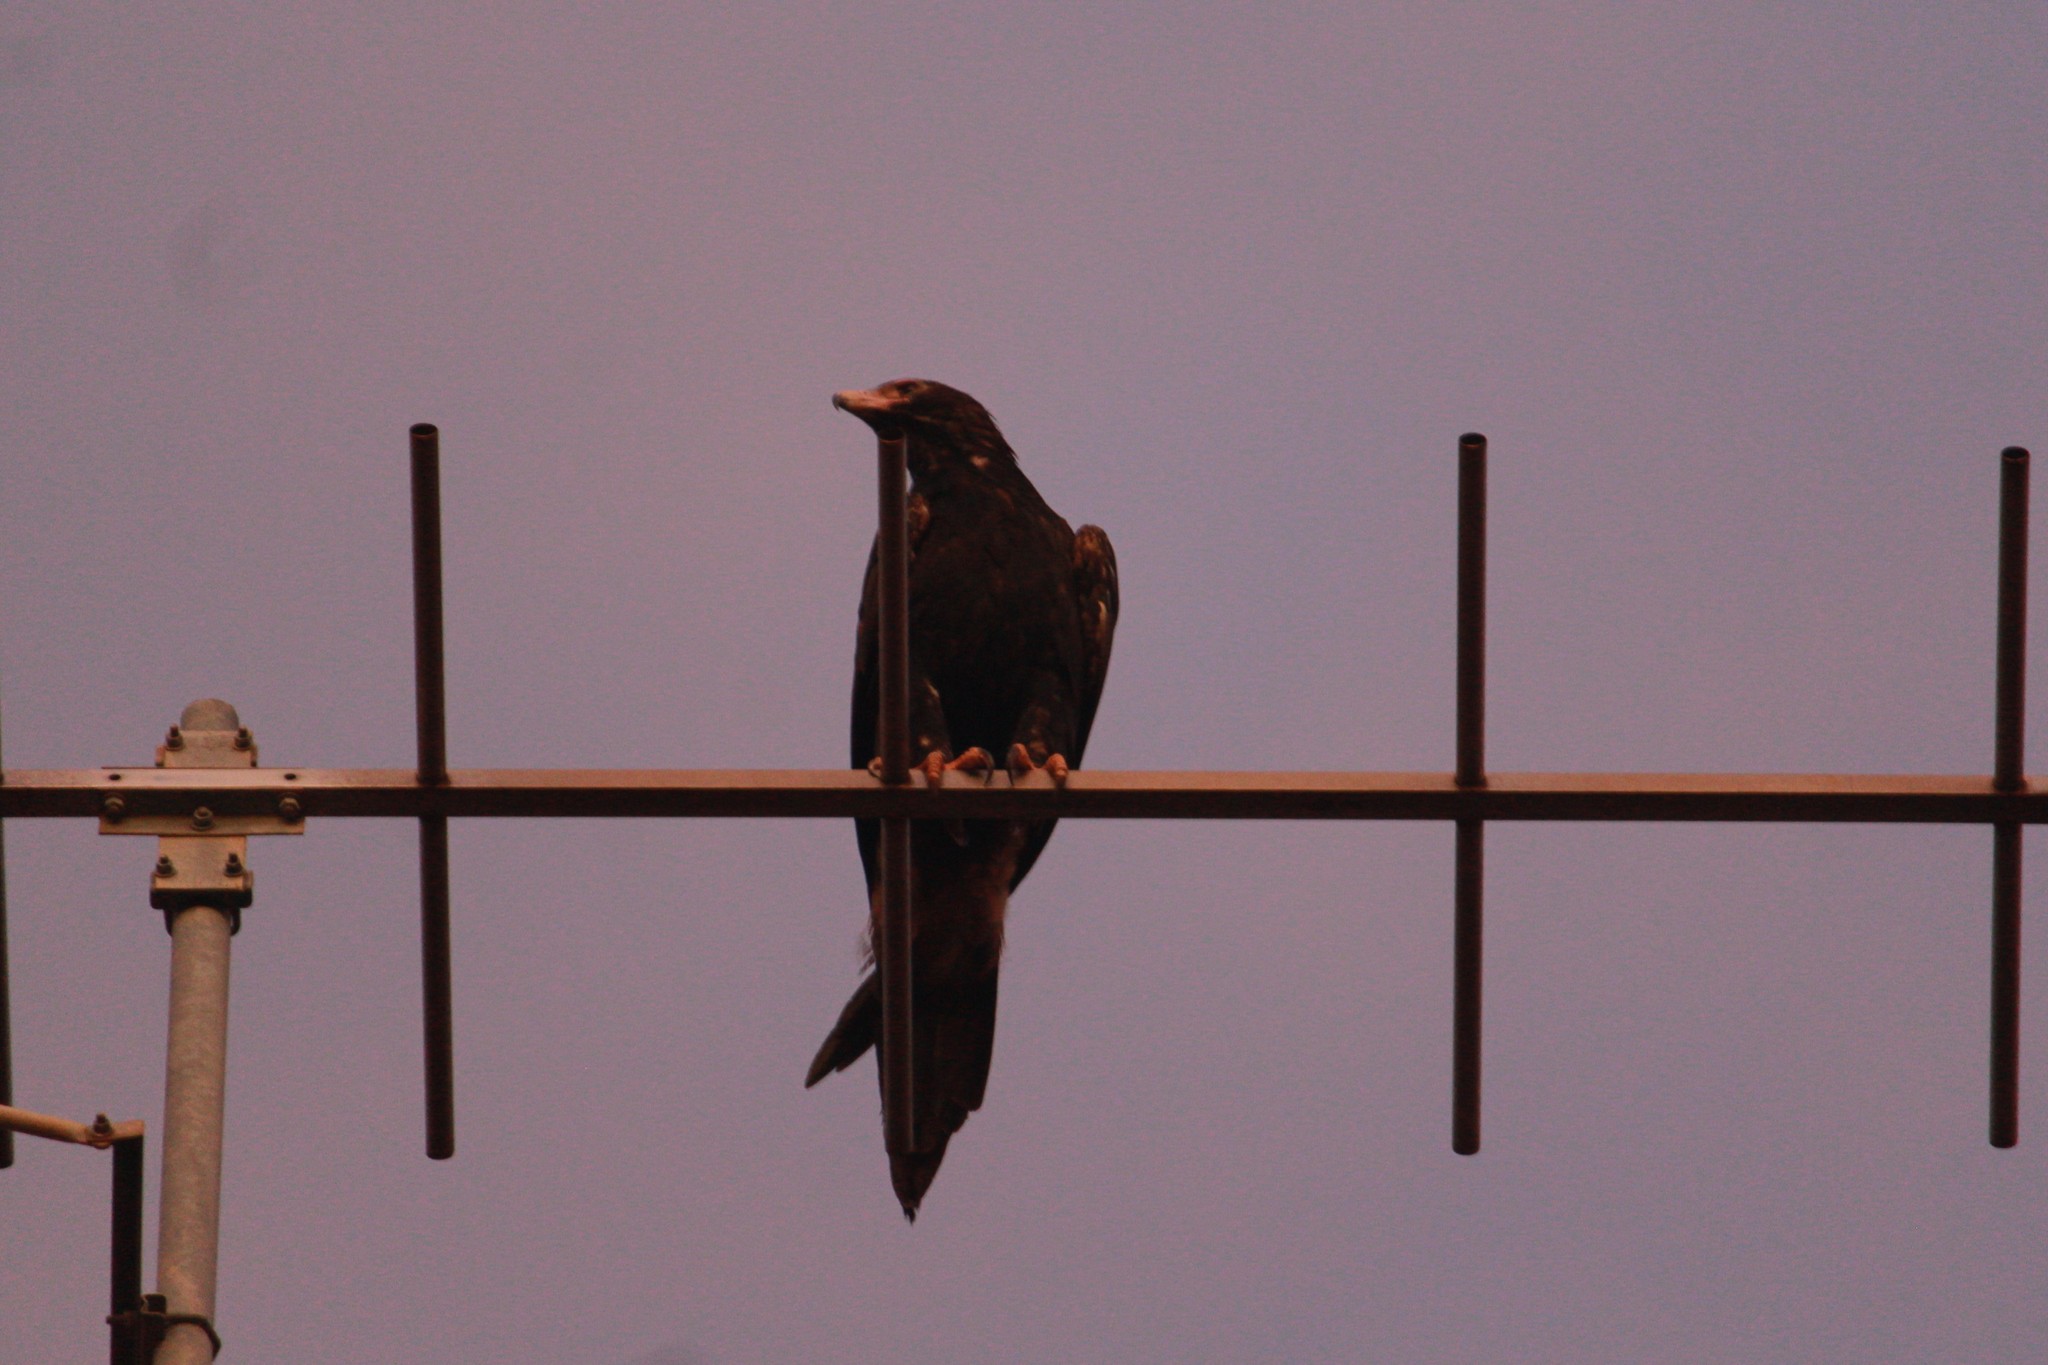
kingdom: Animalia
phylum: Chordata
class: Aves
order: Accipitriformes
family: Accipitridae
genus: Aquila
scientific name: Aquila audax
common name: Wedge-tailed eagle
